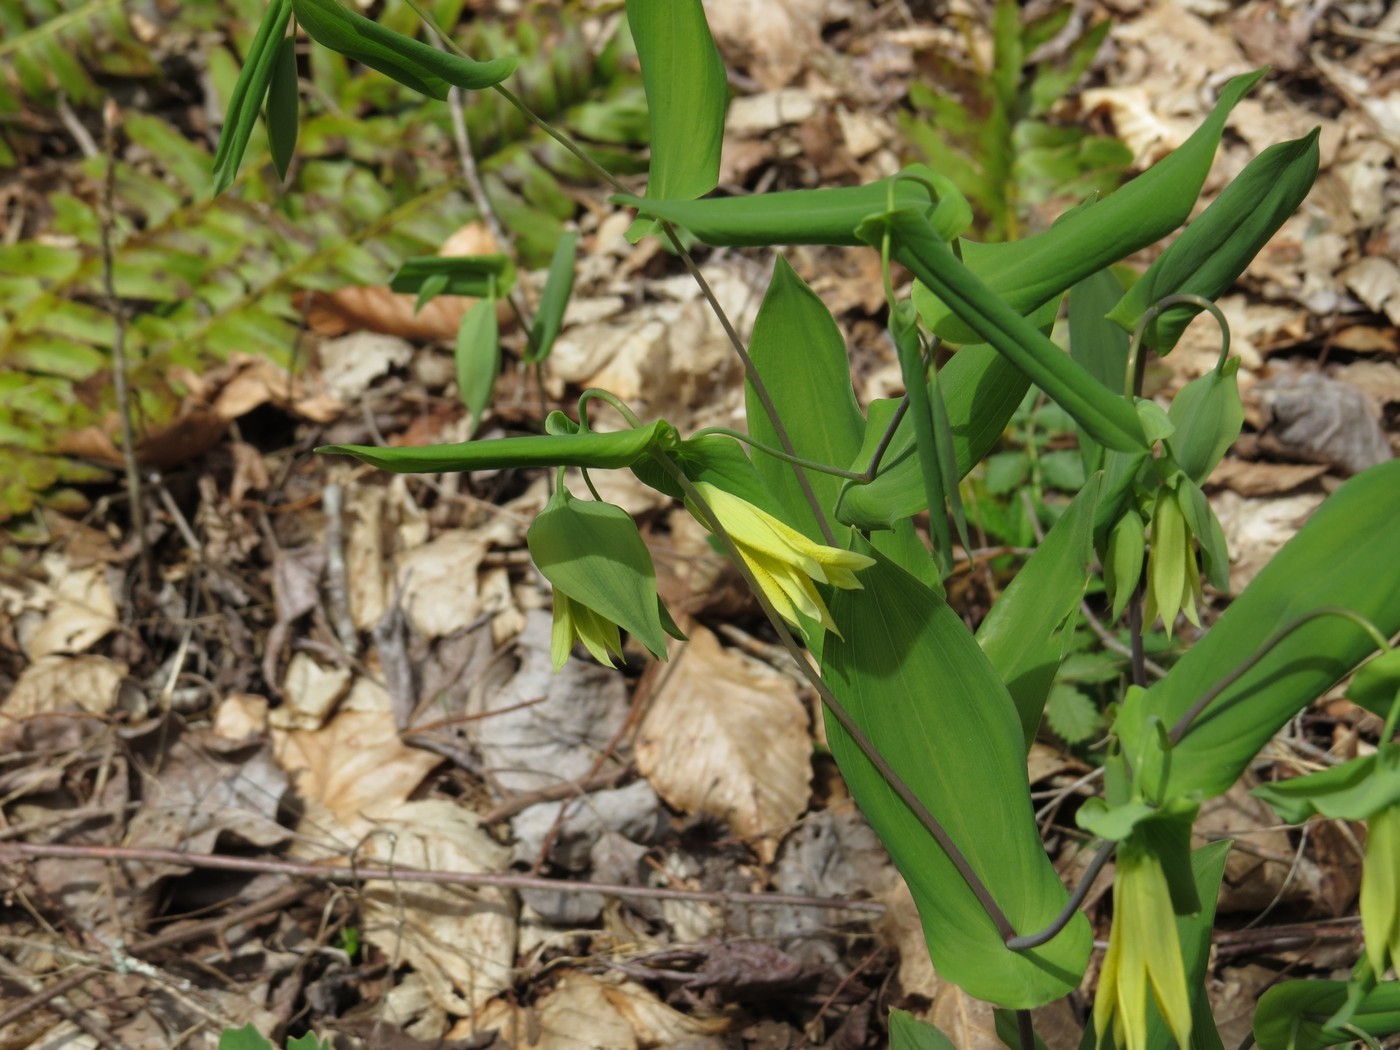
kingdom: Plantae
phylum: Tracheophyta
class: Liliopsida
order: Liliales
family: Colchicaceae
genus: Uvularia
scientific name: Uvularia perfoliata
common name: Perfoliate bellwort
